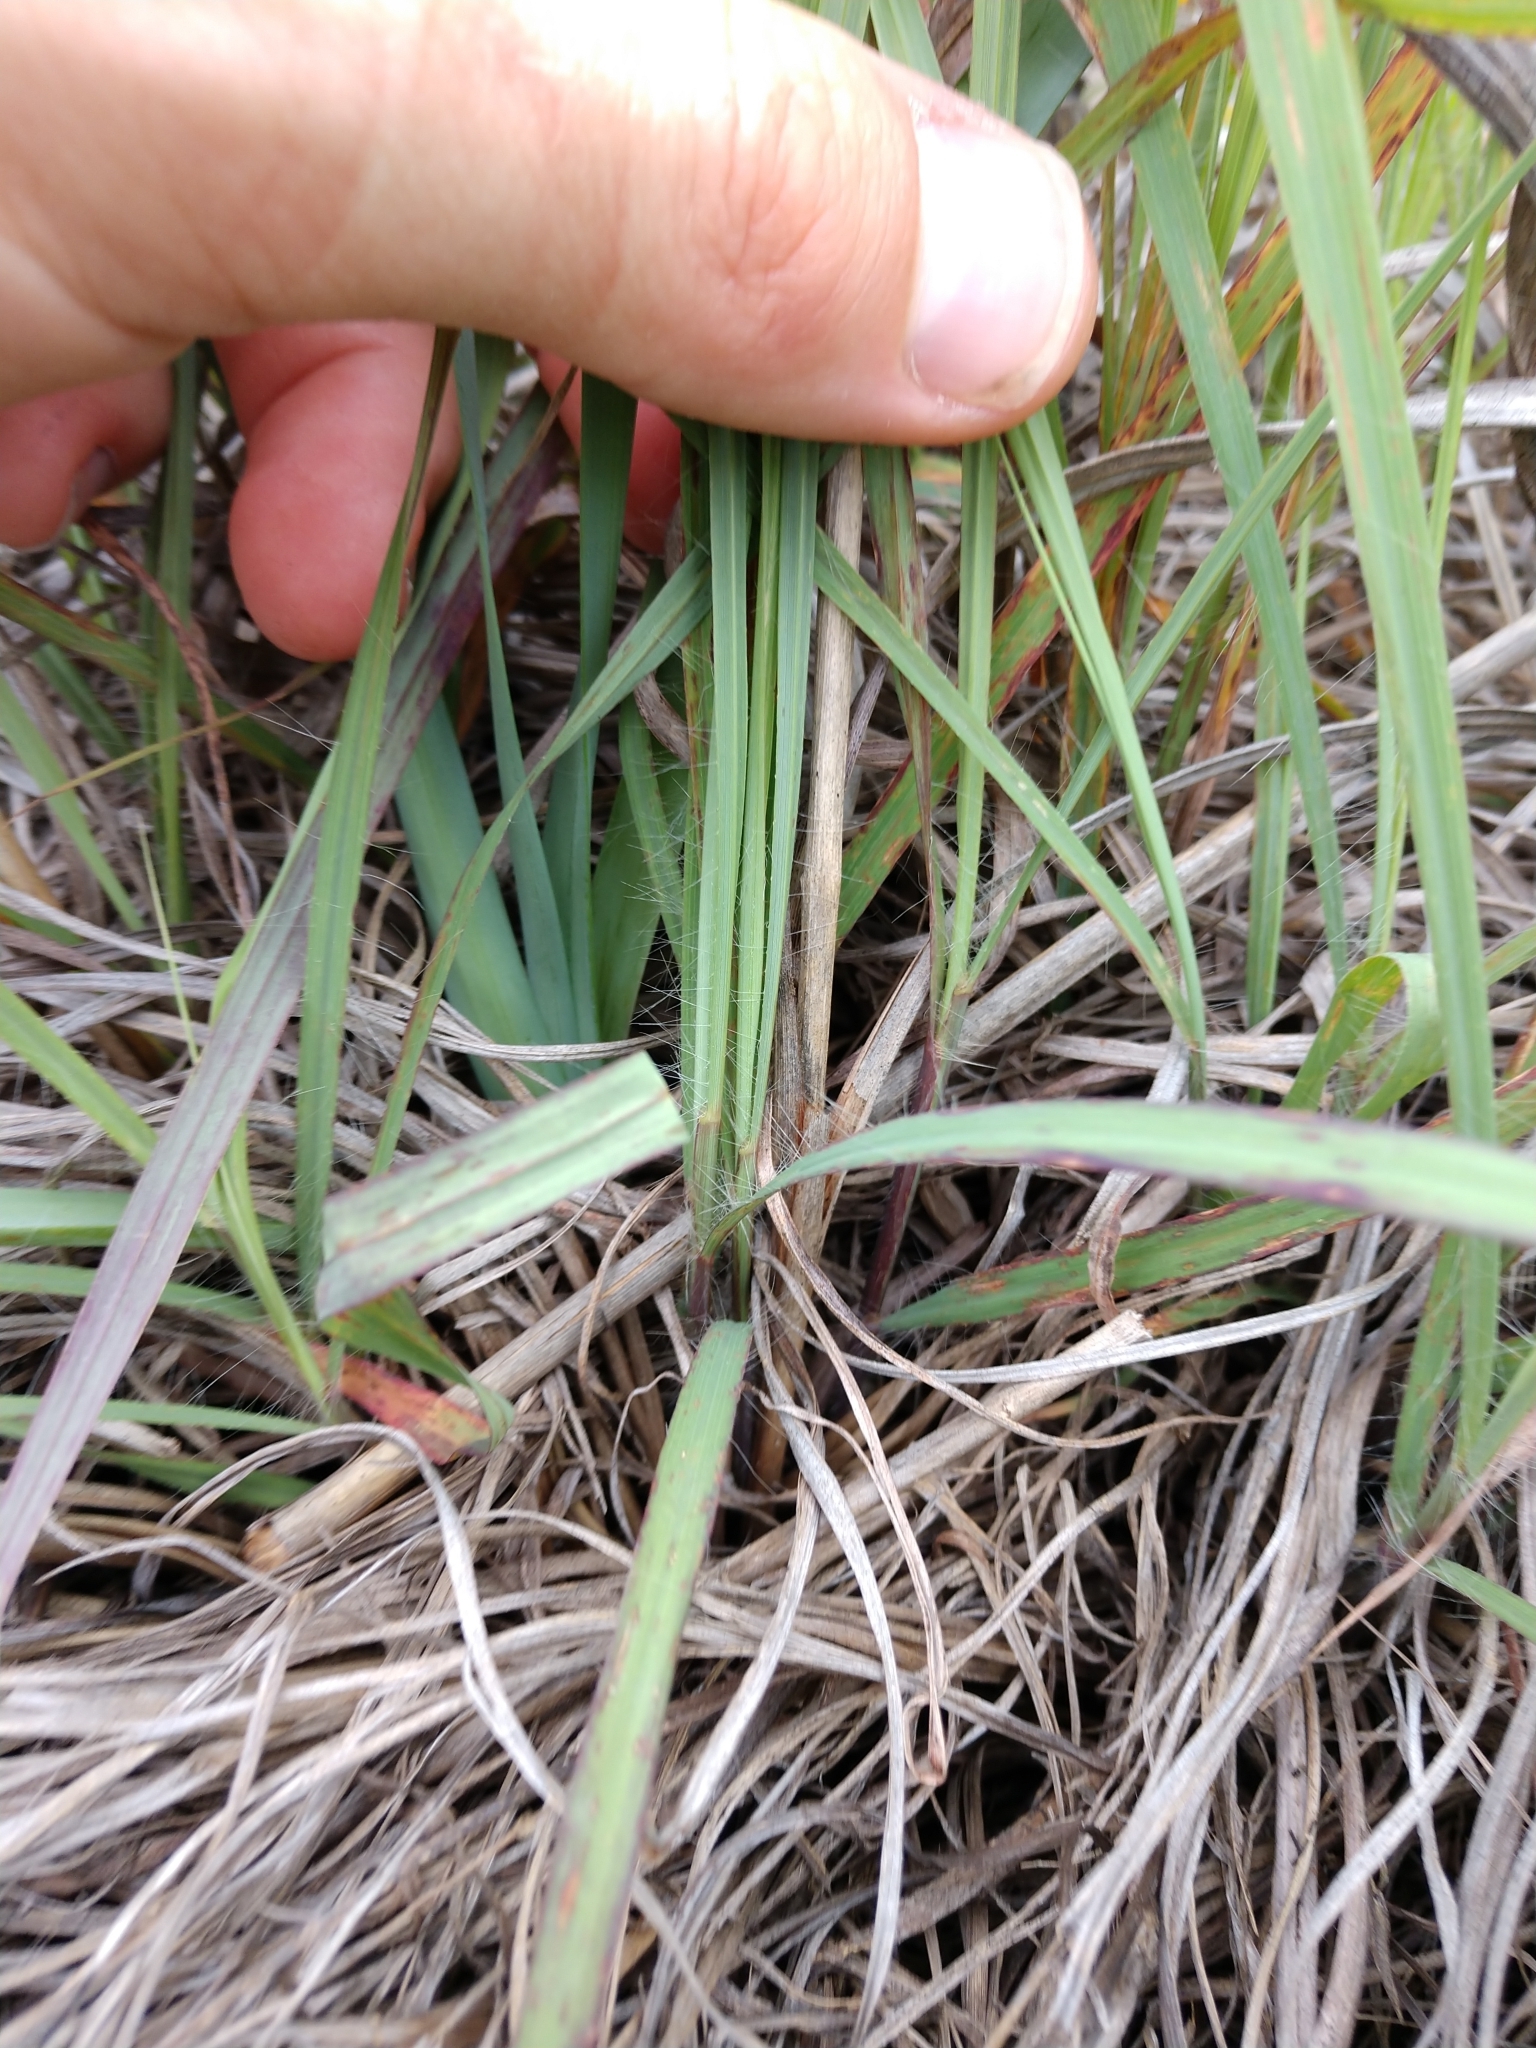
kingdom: Plantae
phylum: Tracheophyta
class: Liliopsida
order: Poales
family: Poaceae
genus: Andropogon
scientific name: Andropogon gerardi
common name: Big bluestem
